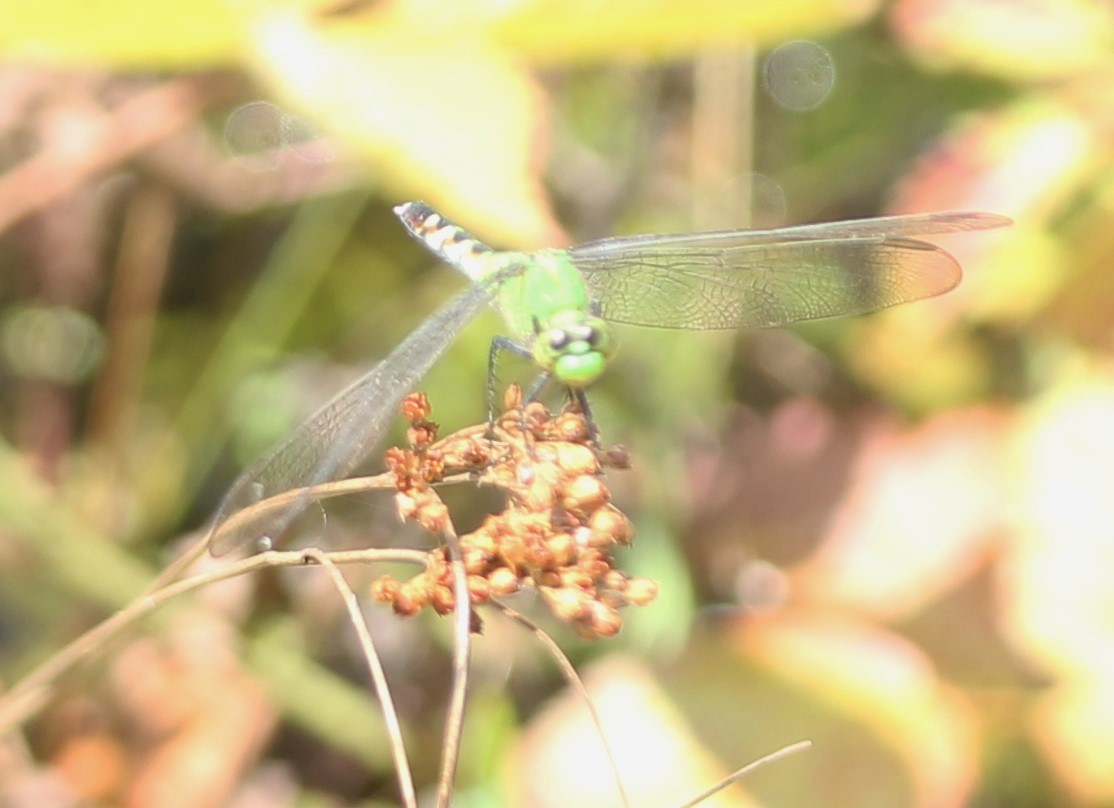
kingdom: Animalia
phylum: Arthropoda
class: Insecta
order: Odonata
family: Libellulidae
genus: Erythemis
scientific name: Erythemis simplicicollis
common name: Eastern pondhawk
